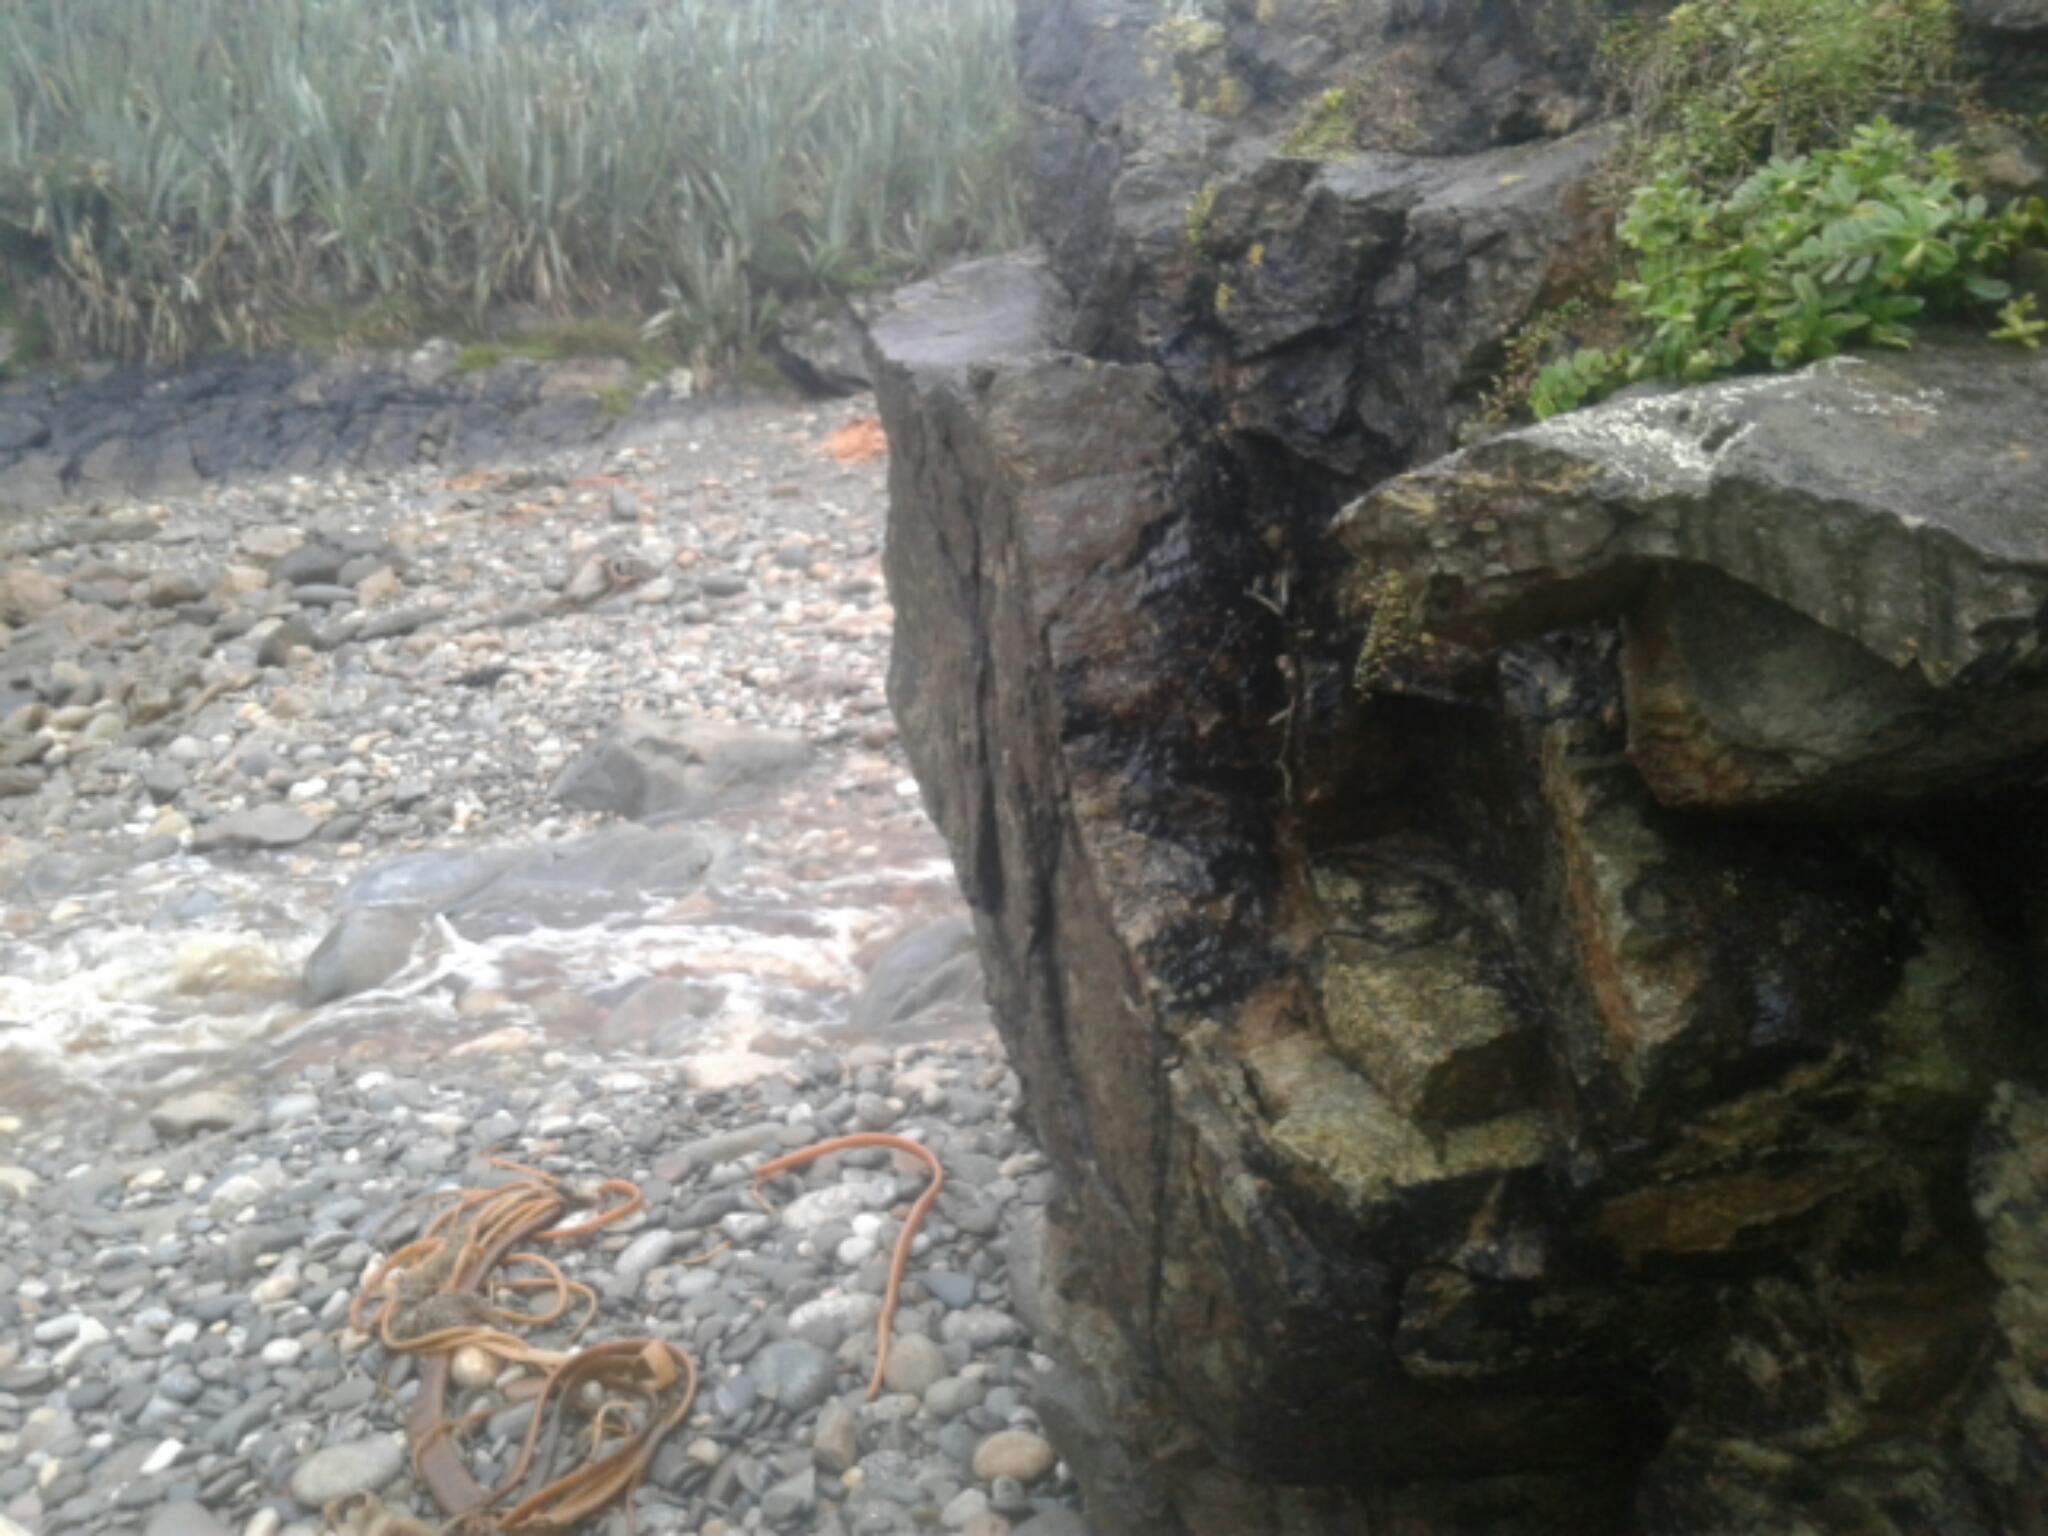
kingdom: Plantae
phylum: Tracheophyta
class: Magnoliopsida
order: Asterales
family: Goodeniaceae
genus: Goodenia
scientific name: Goodenia radicans
